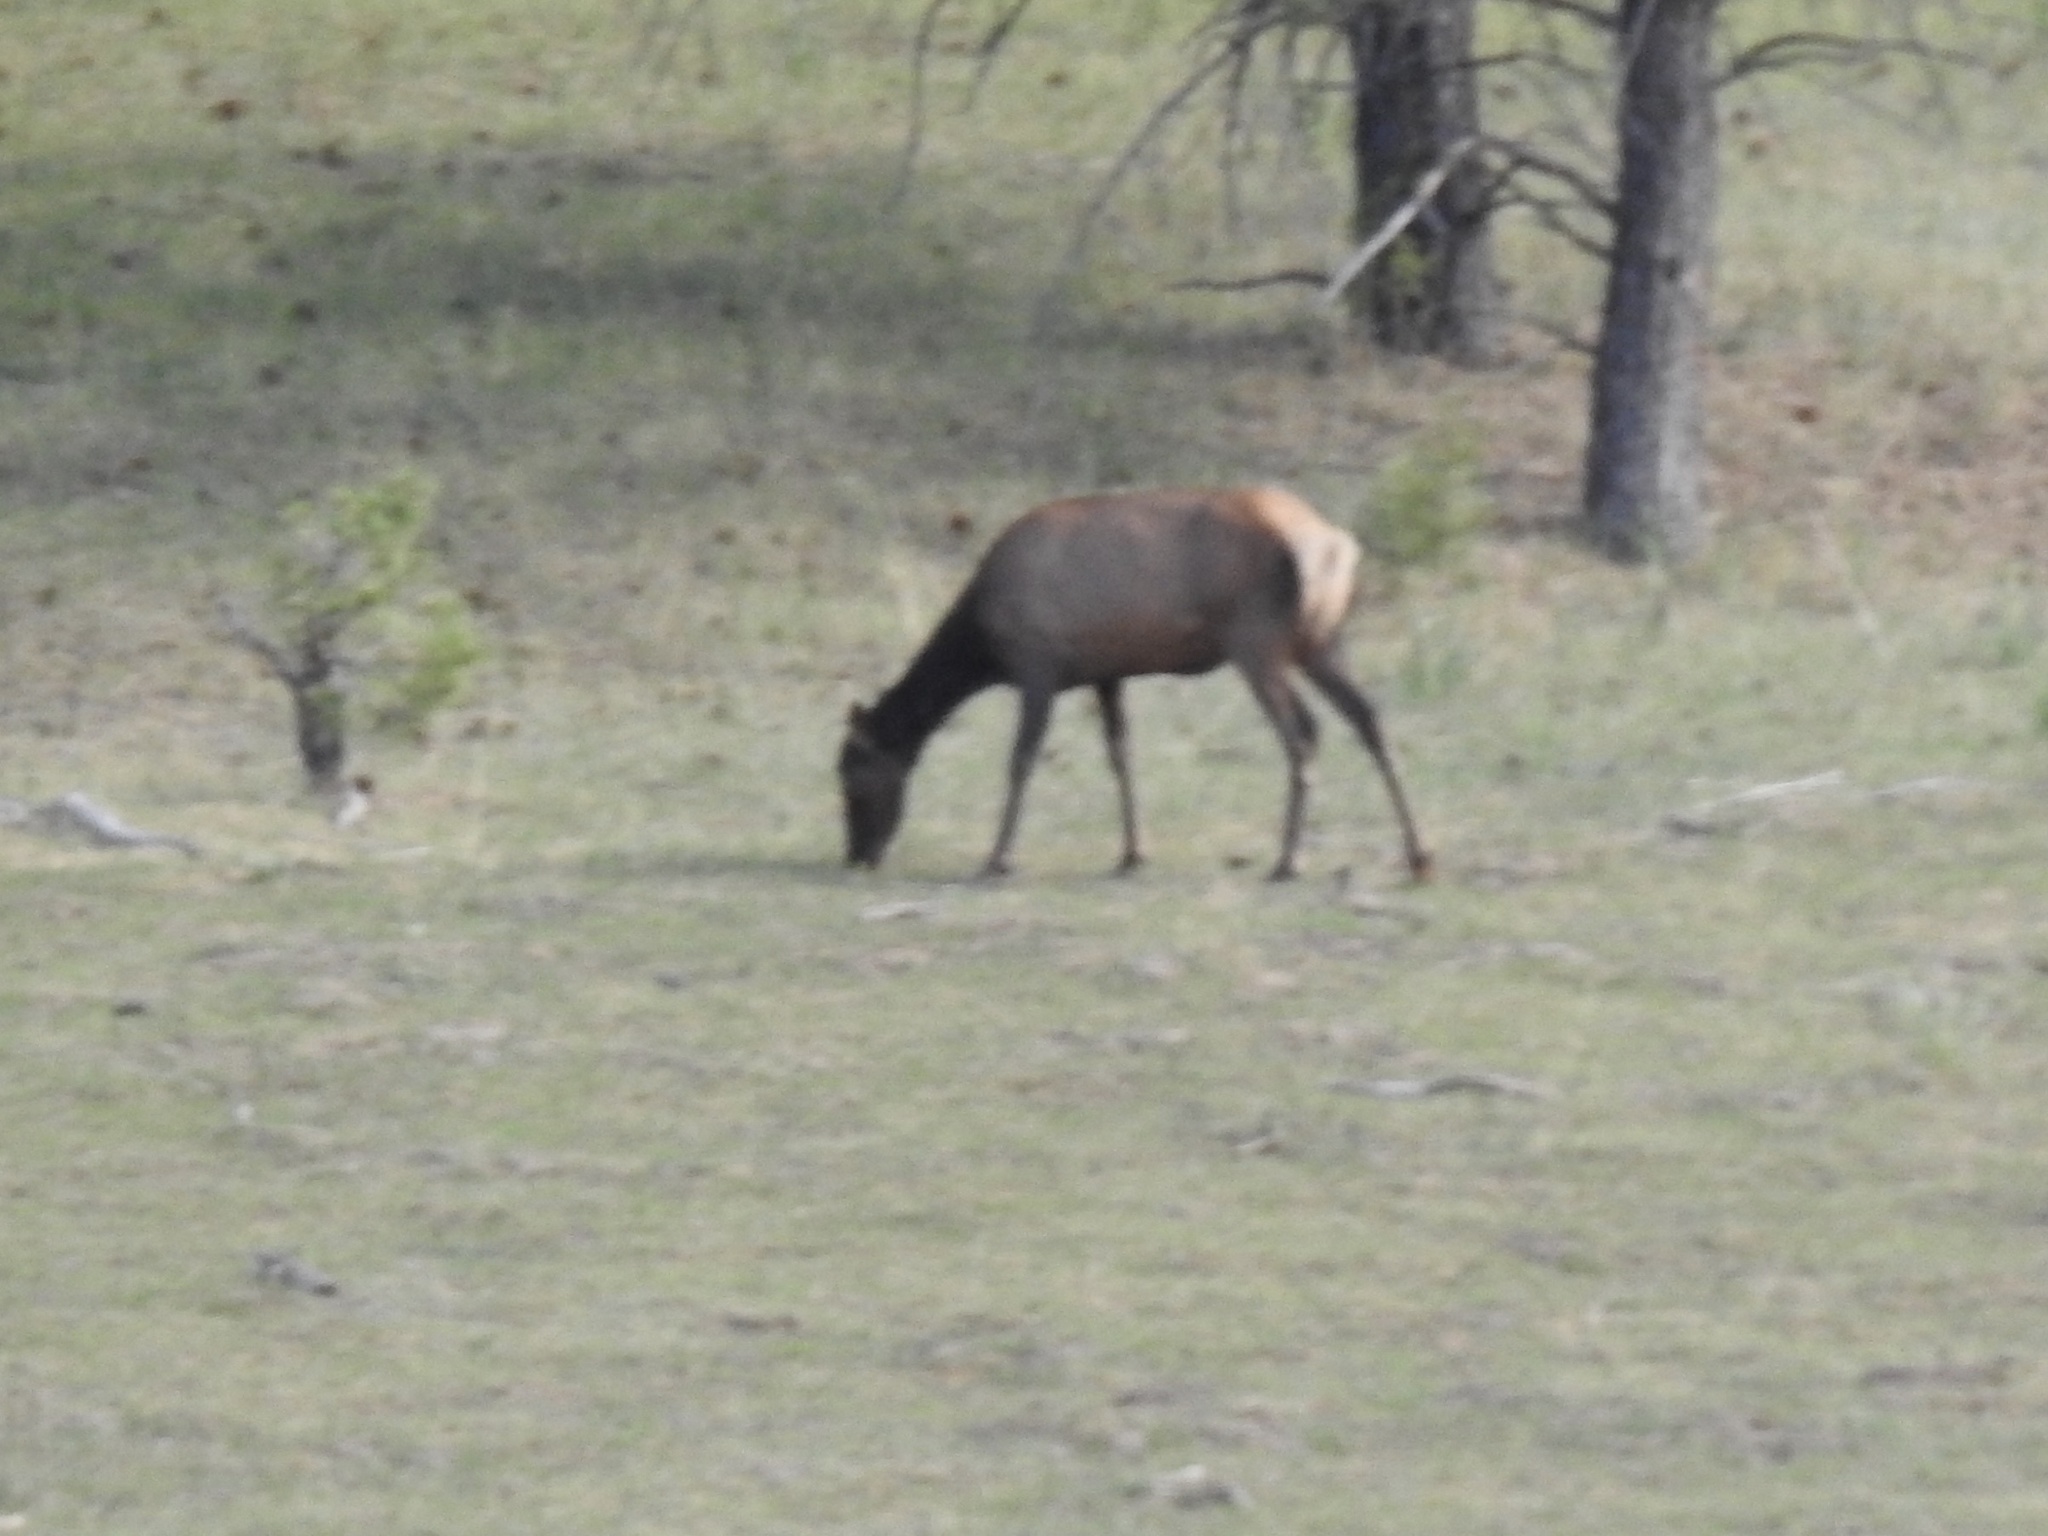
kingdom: Animalia
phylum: Chordata
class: Mammalia
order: Artiodactyla
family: Cervidae
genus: Cervus
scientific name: Cervus elaphus
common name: Red deer
